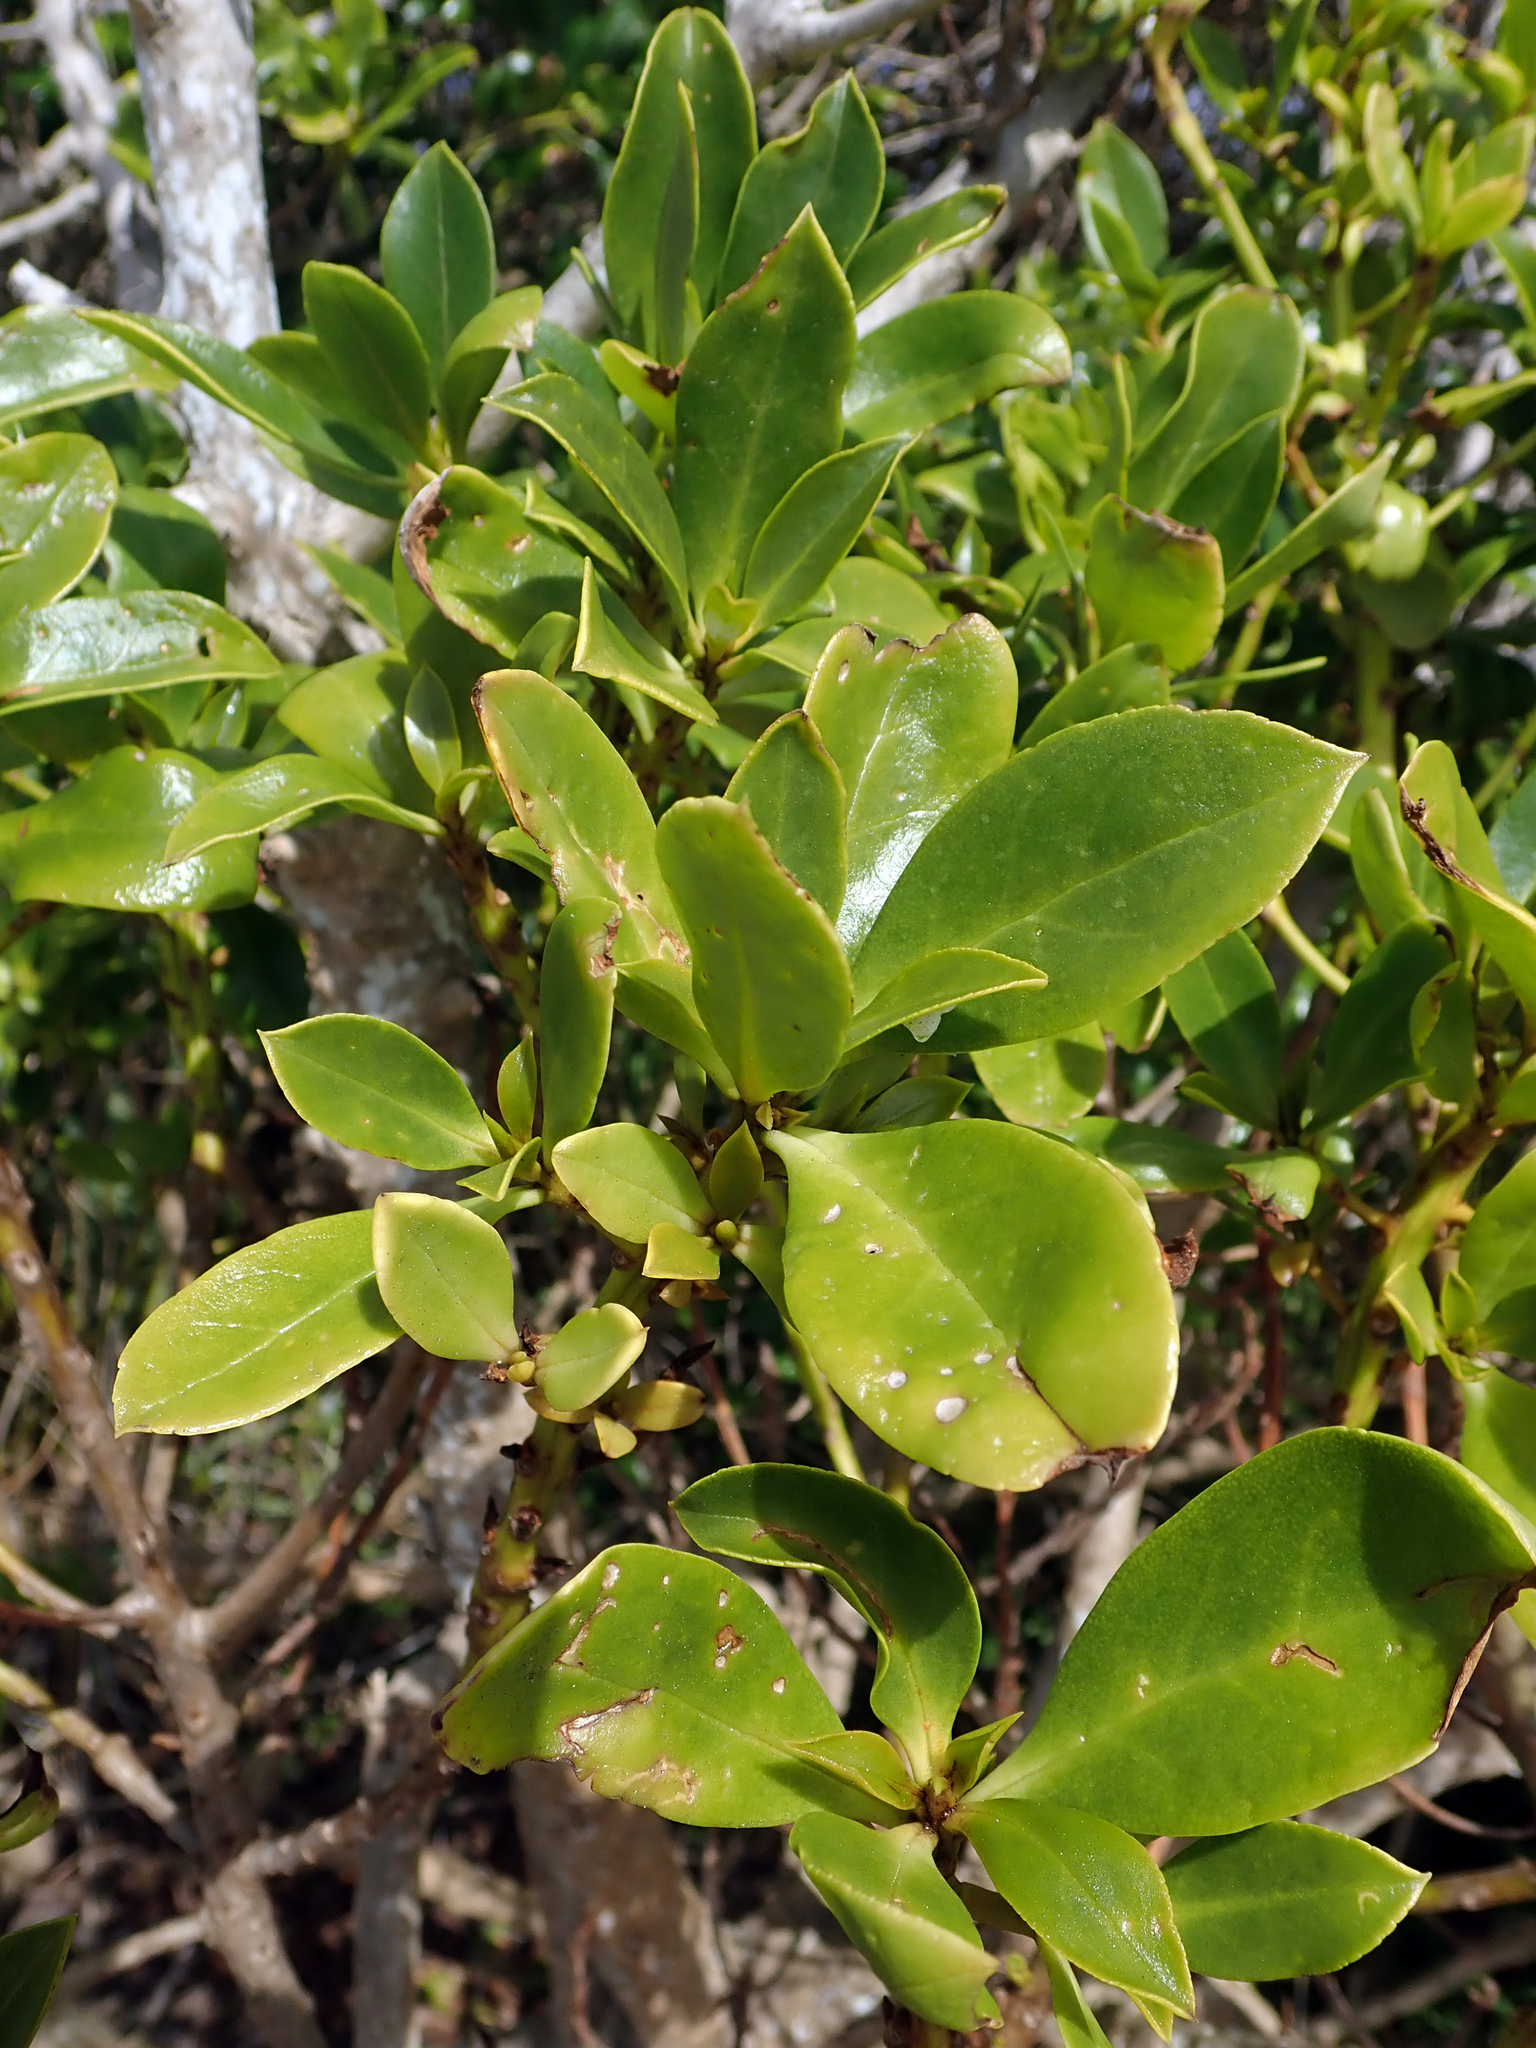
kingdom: Plantae
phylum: Tracheophyta
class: Magnoliopsida
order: Lamiales
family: Scrophulariaceae
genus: Myoporum
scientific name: Myoporum semotum
